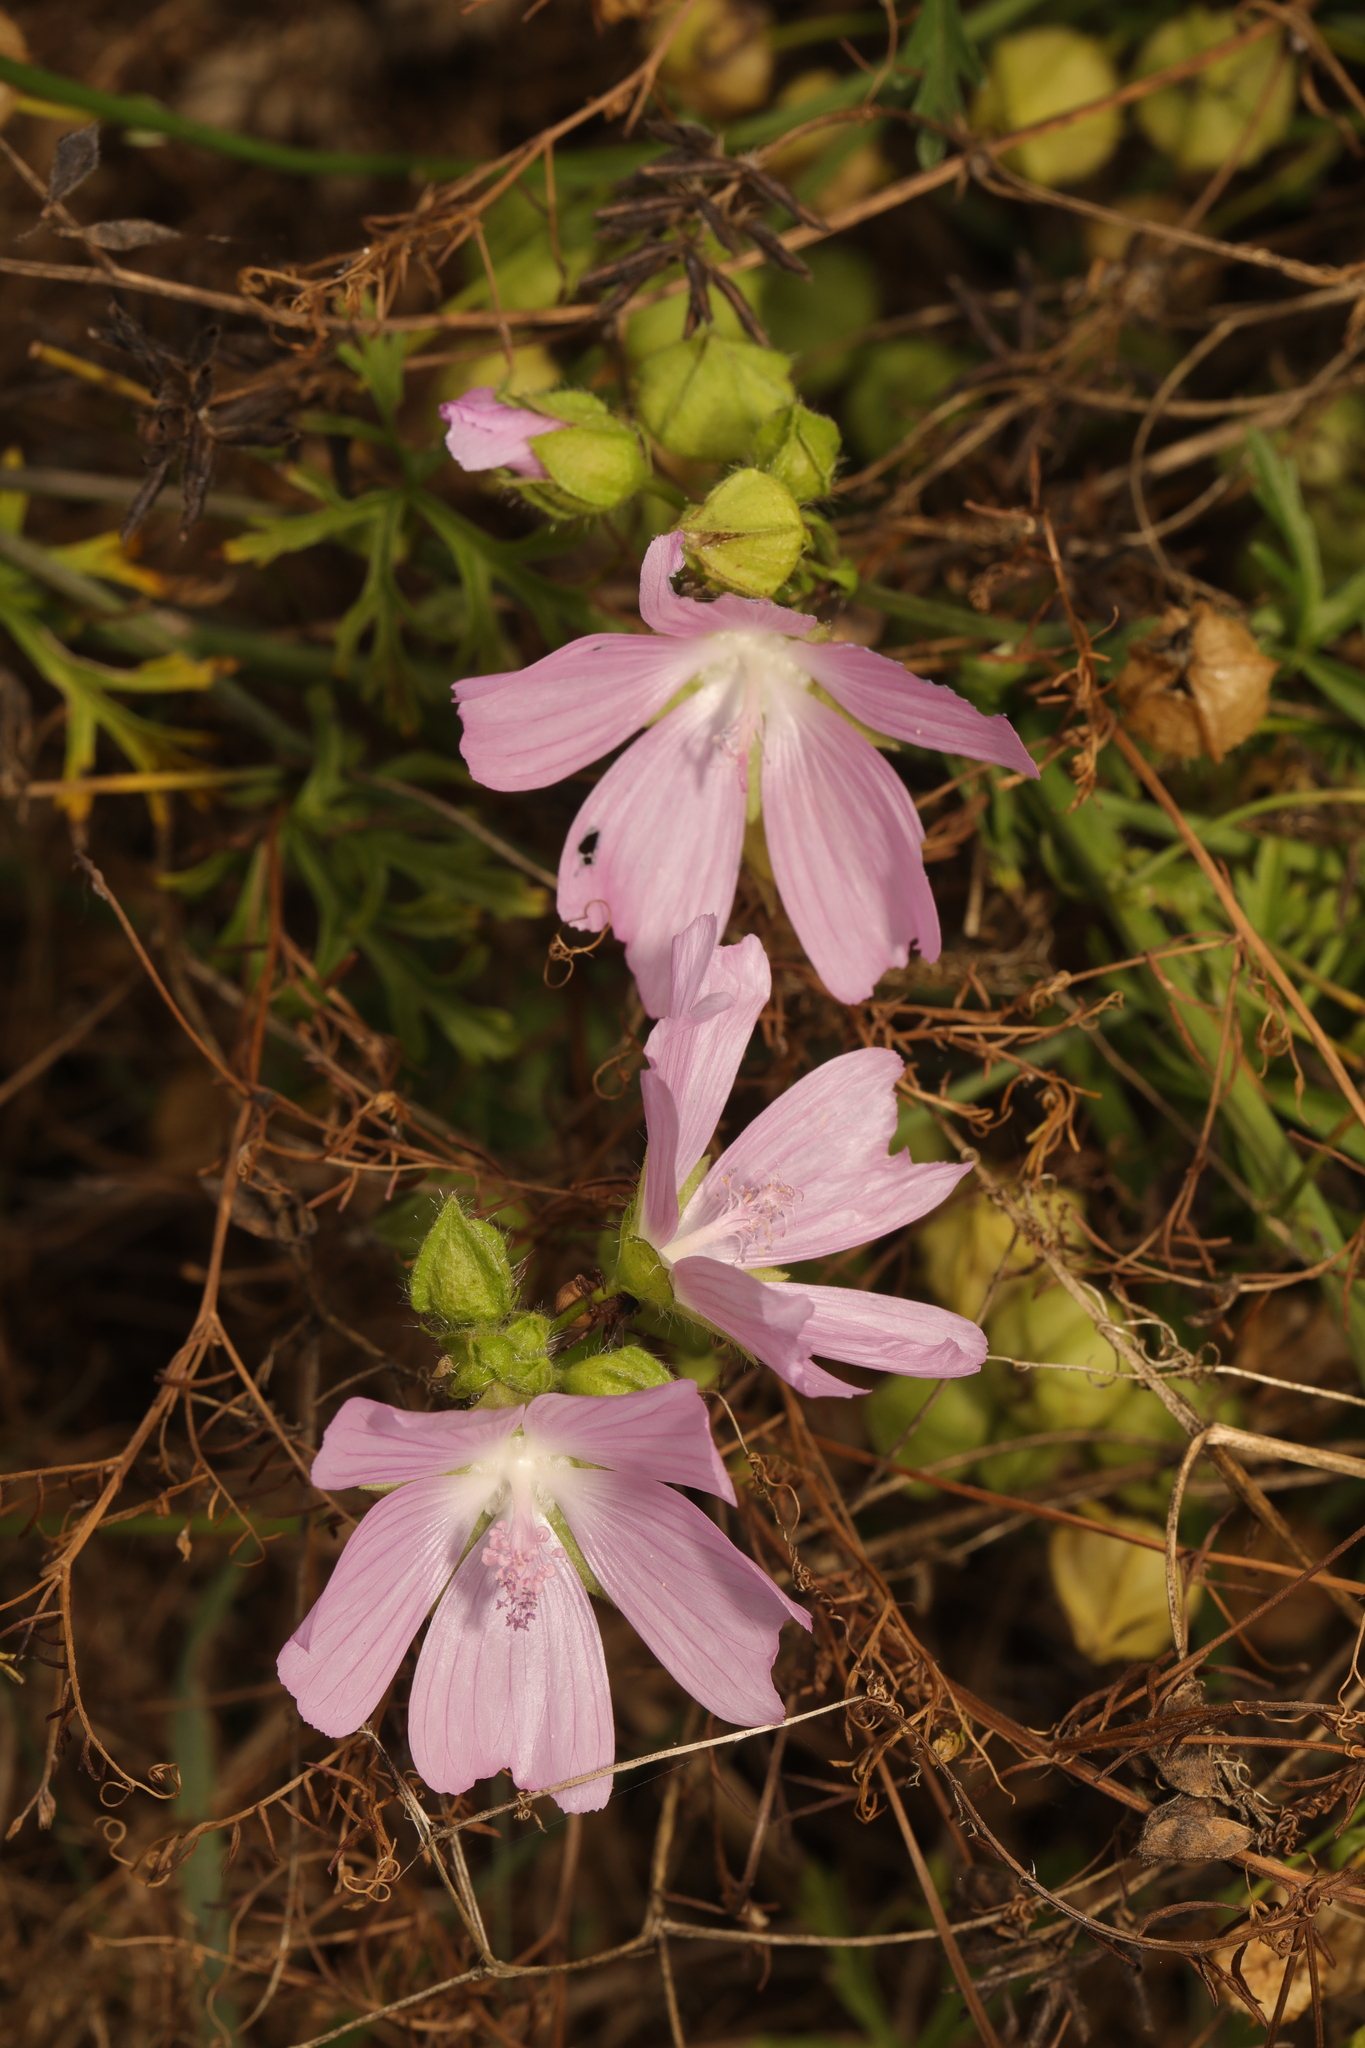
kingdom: Plantae
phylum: Tracheophyta
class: Magnoliopsida
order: Malvales
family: Malvaceae
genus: Malva
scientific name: Malva moschata
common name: Musk mallow
